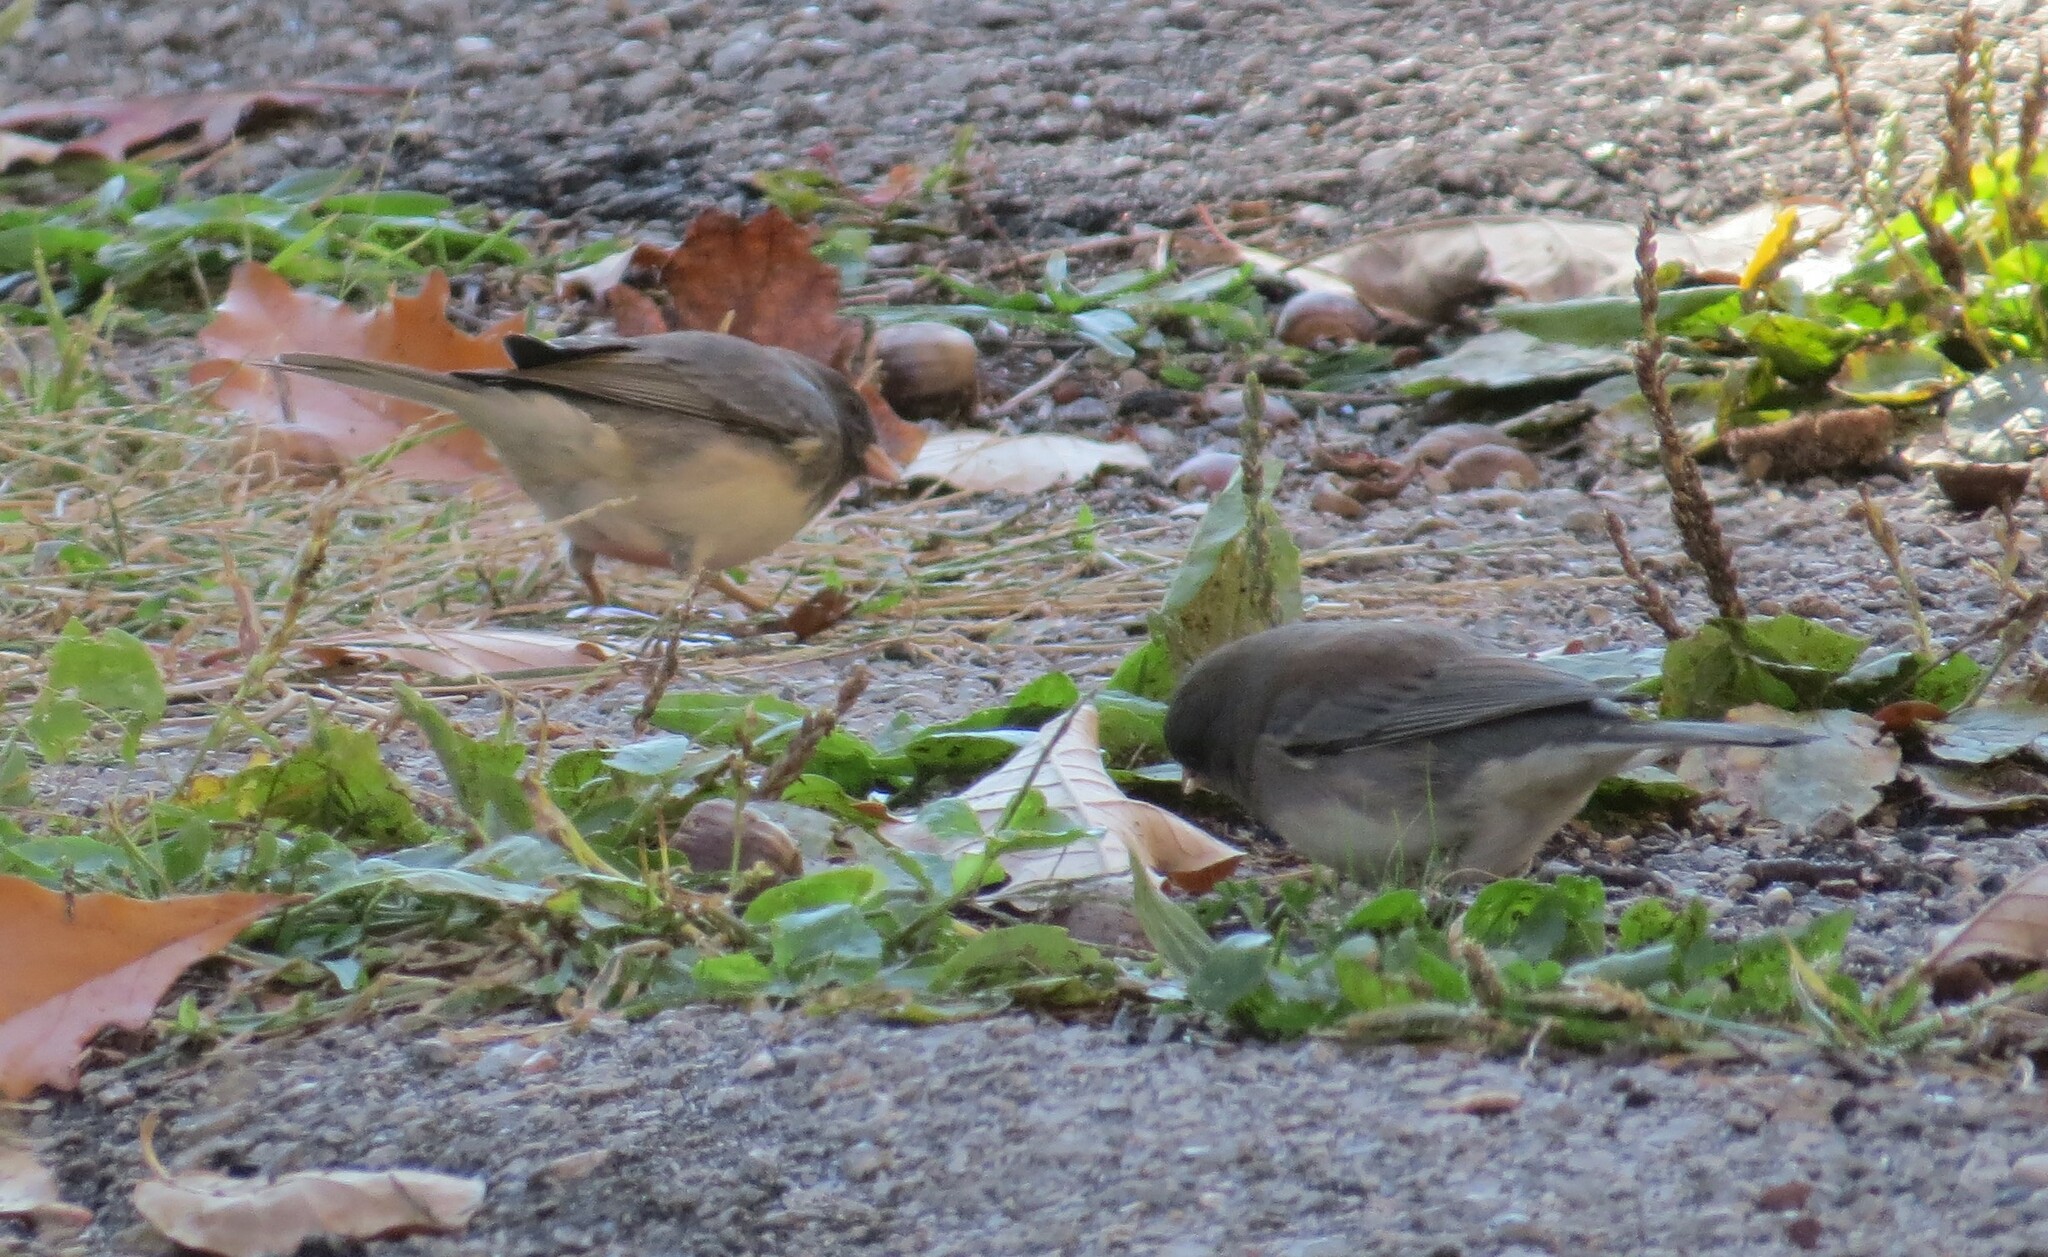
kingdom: Animalia
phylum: Chordata
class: Aves
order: Passeriformes
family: Passerellidae
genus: Junco
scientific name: Junco hyemalis
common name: Dark-eyed junco
